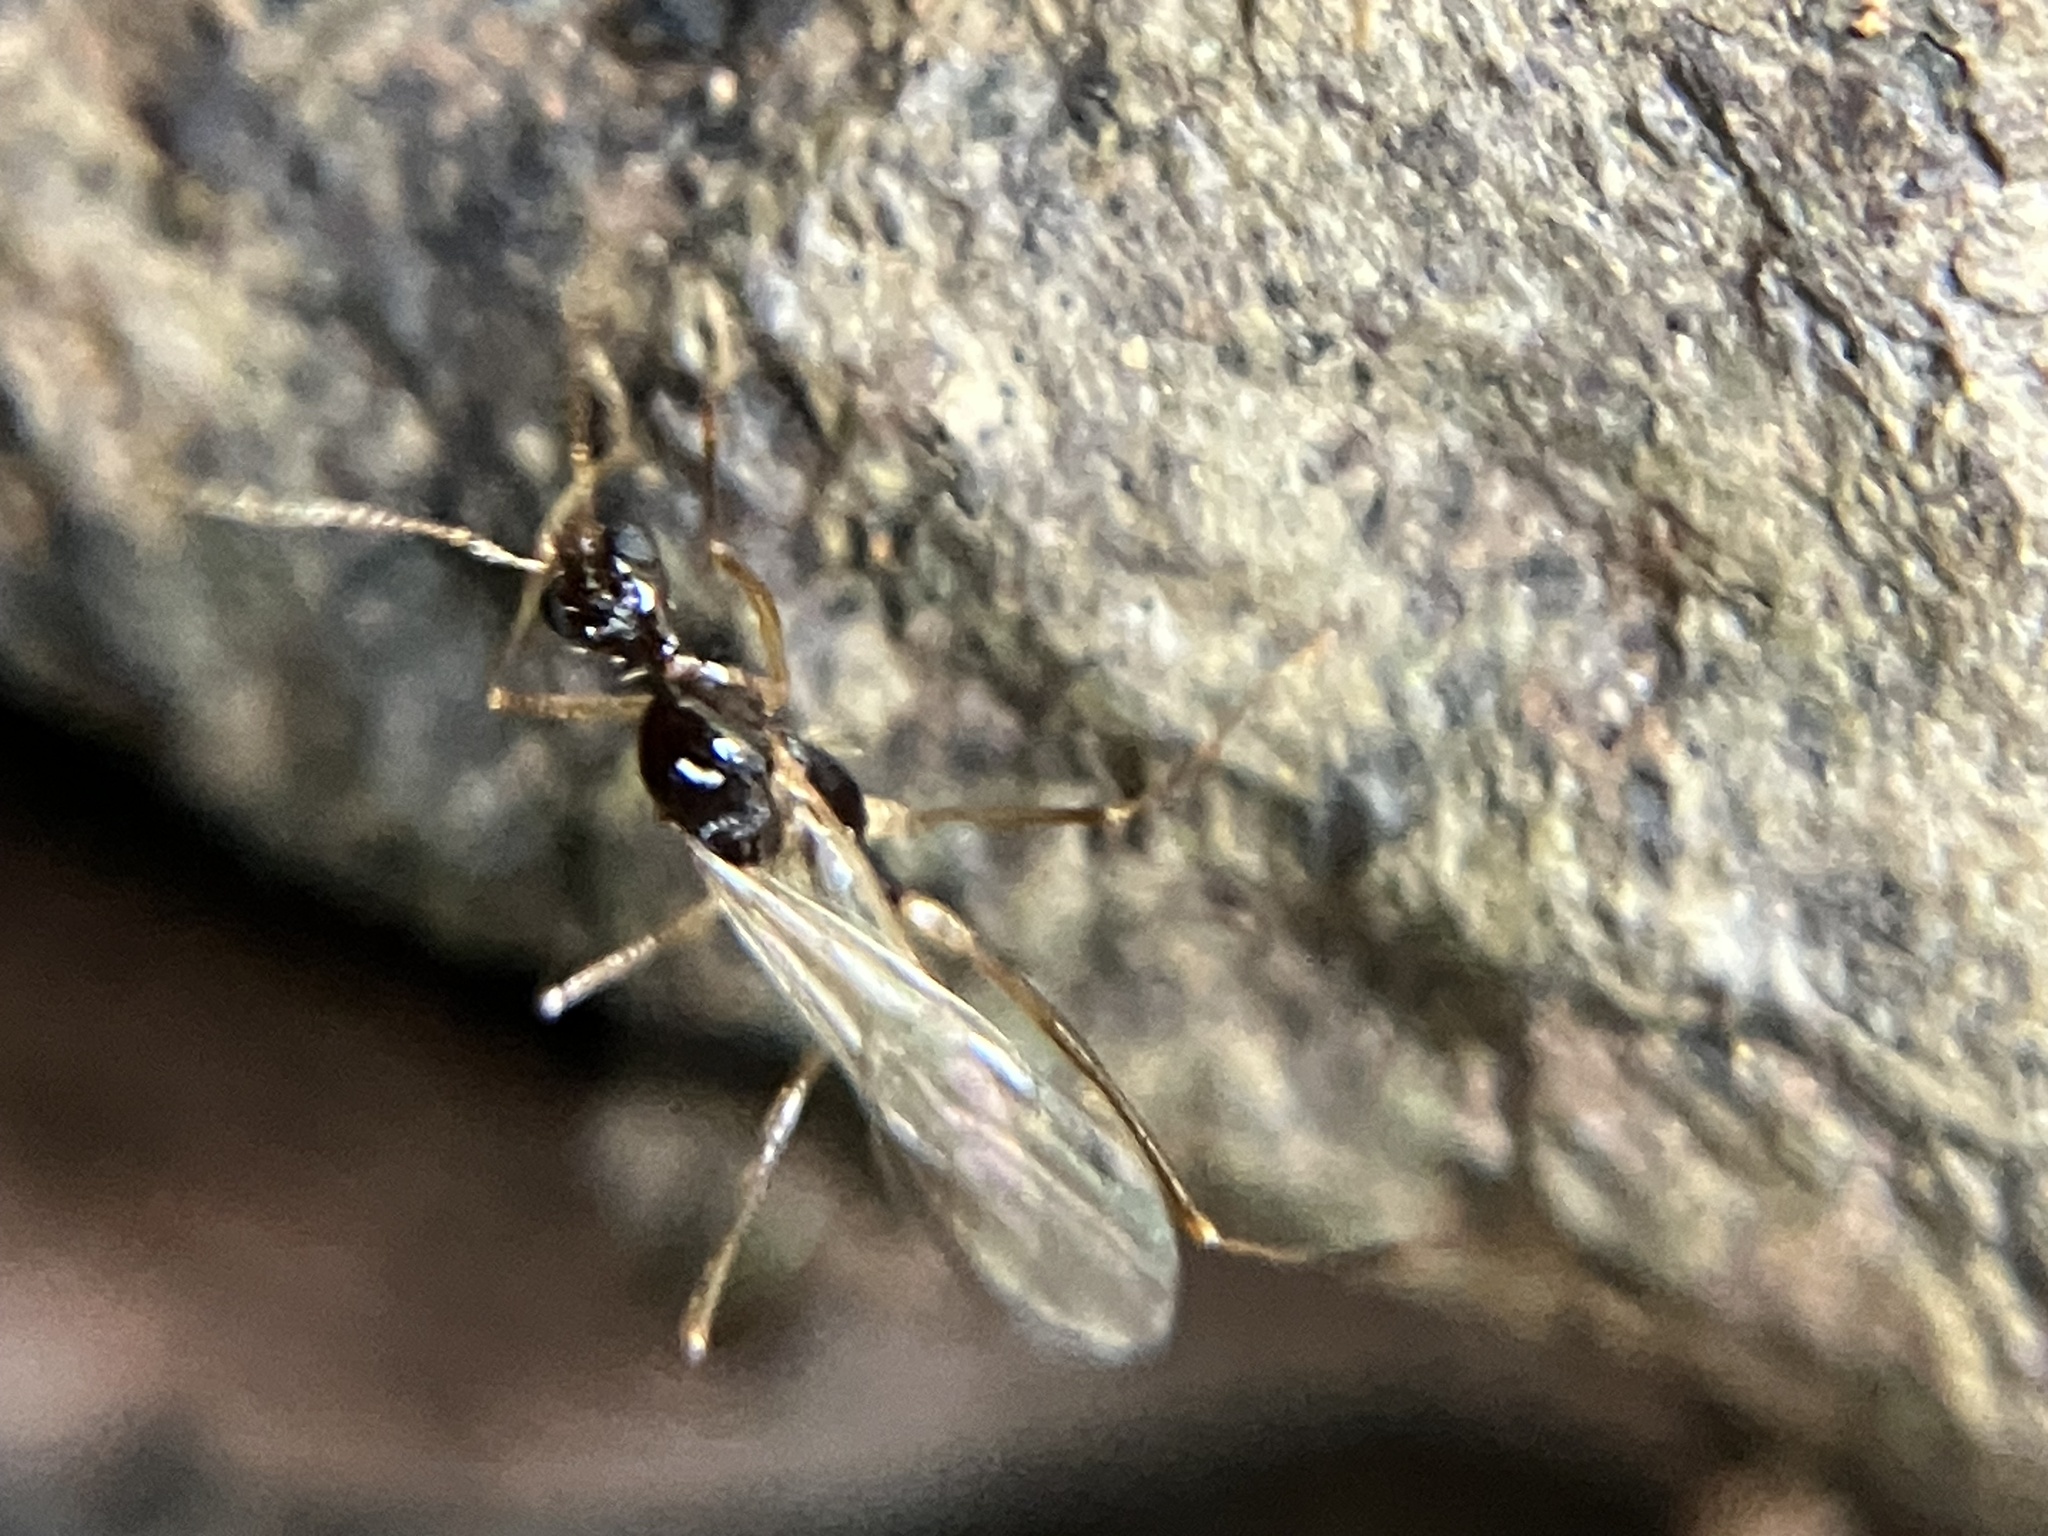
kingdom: Animalia
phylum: Arthropoda
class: Insecta
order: Hymenoptera
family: Formicidae
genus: Aphaenogaster
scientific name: Aphaenogaster beccarii
